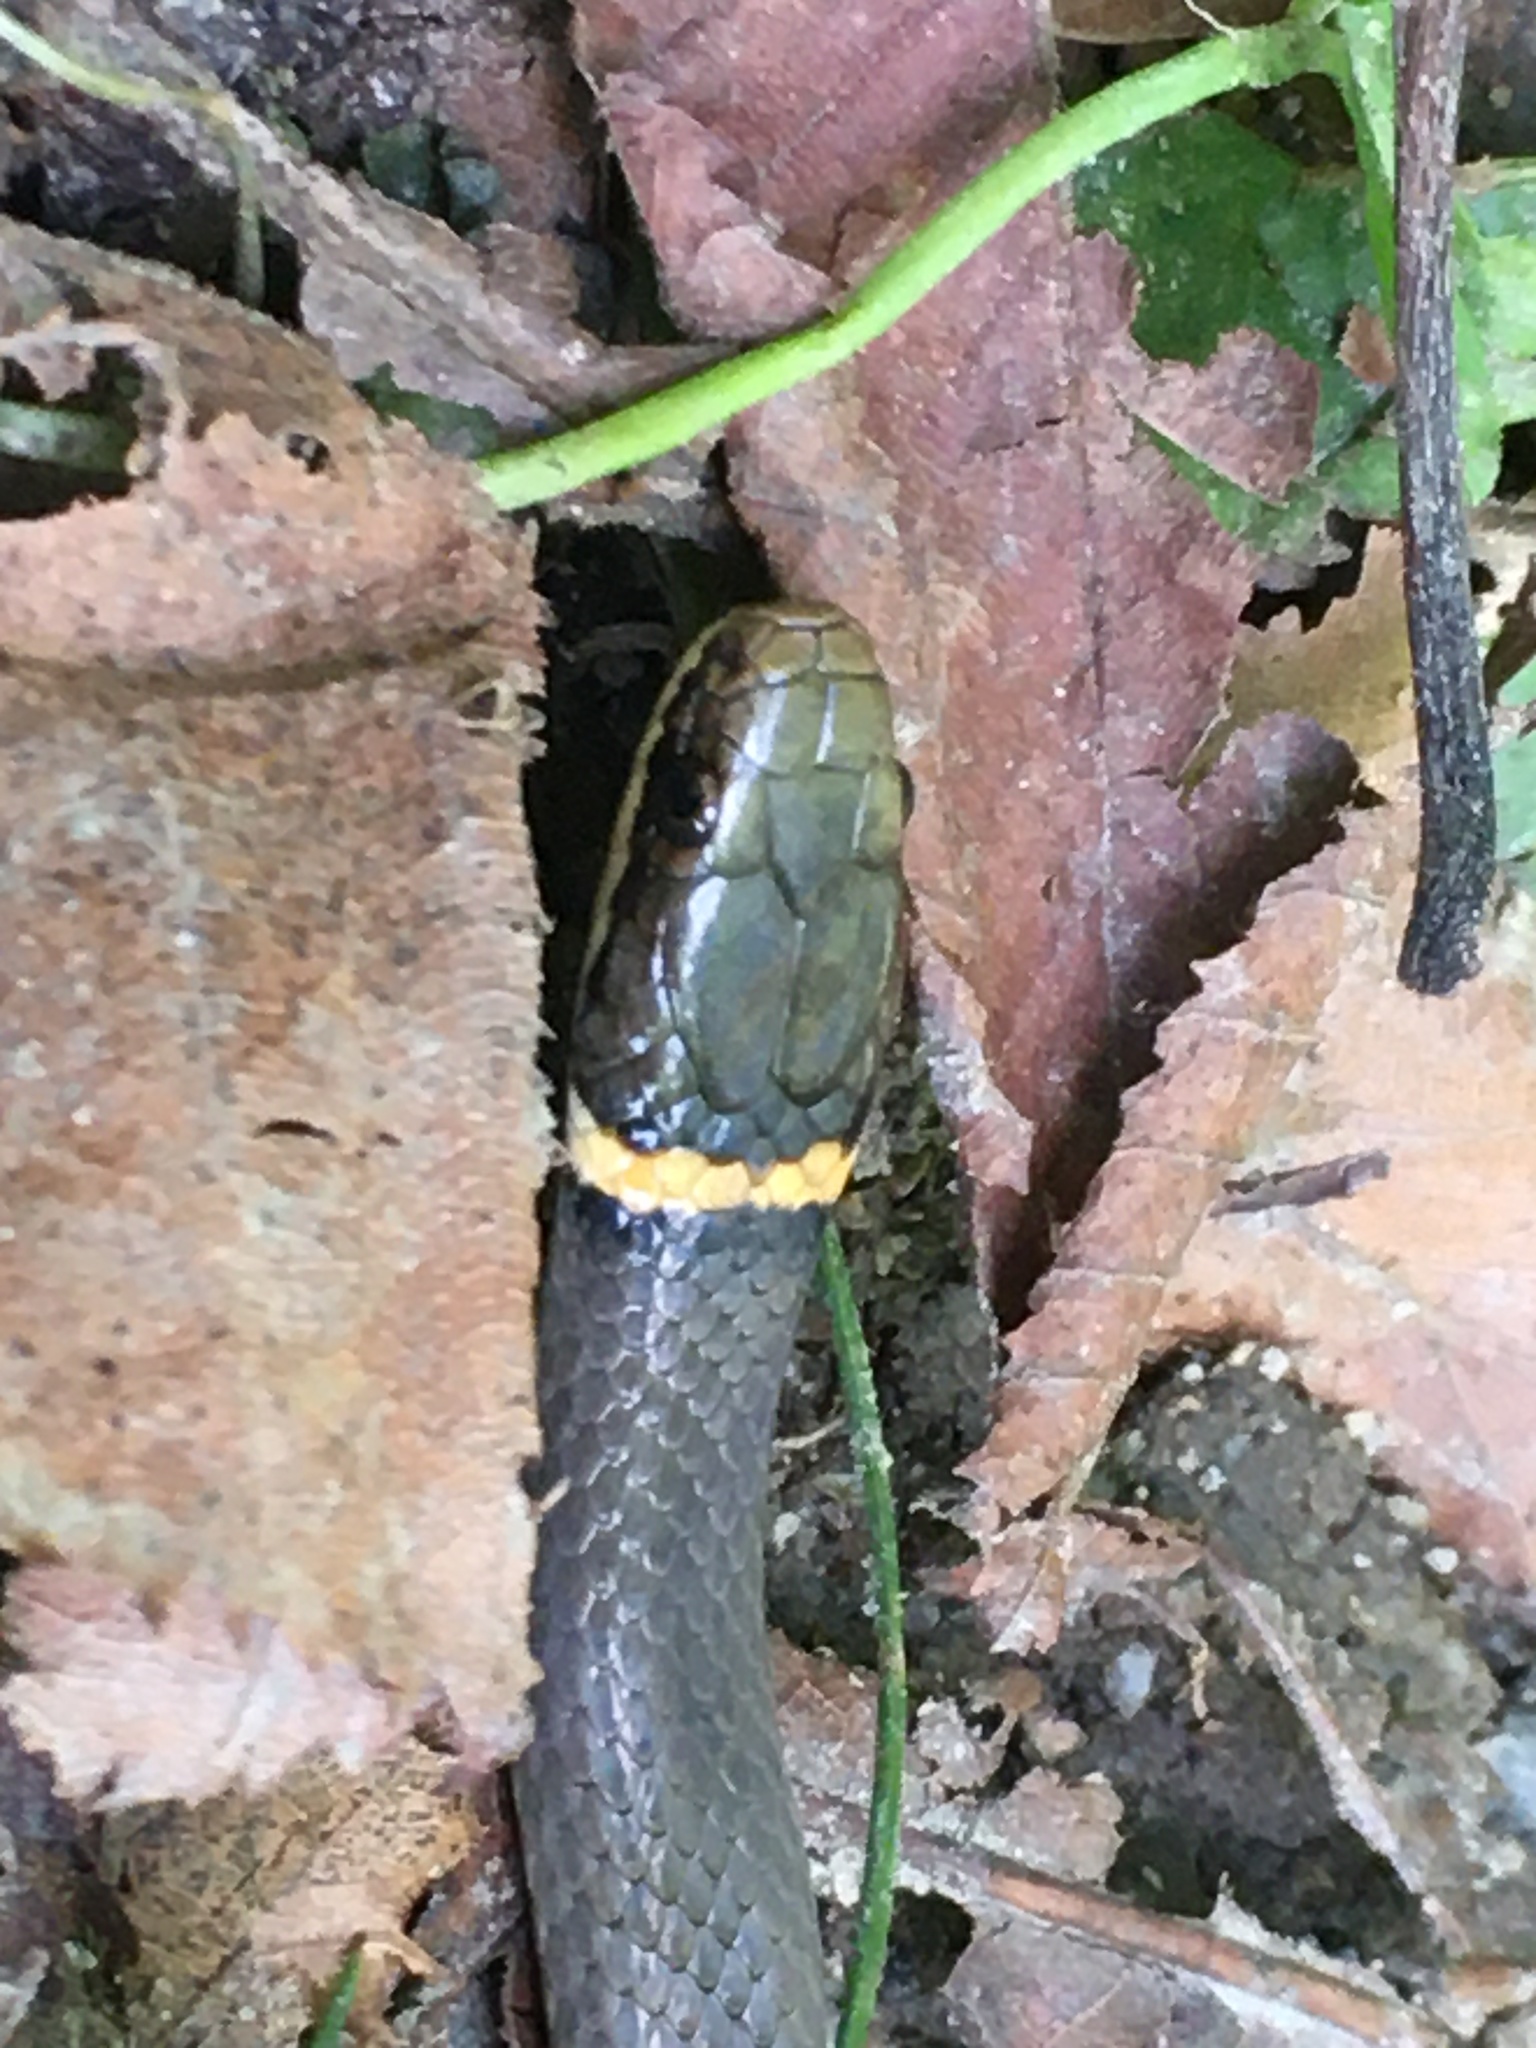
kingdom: Animalia
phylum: Chordata
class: Squamata
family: Colubridae
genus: Diadophis
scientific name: Diadophis punctatus
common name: Ringneck snake
